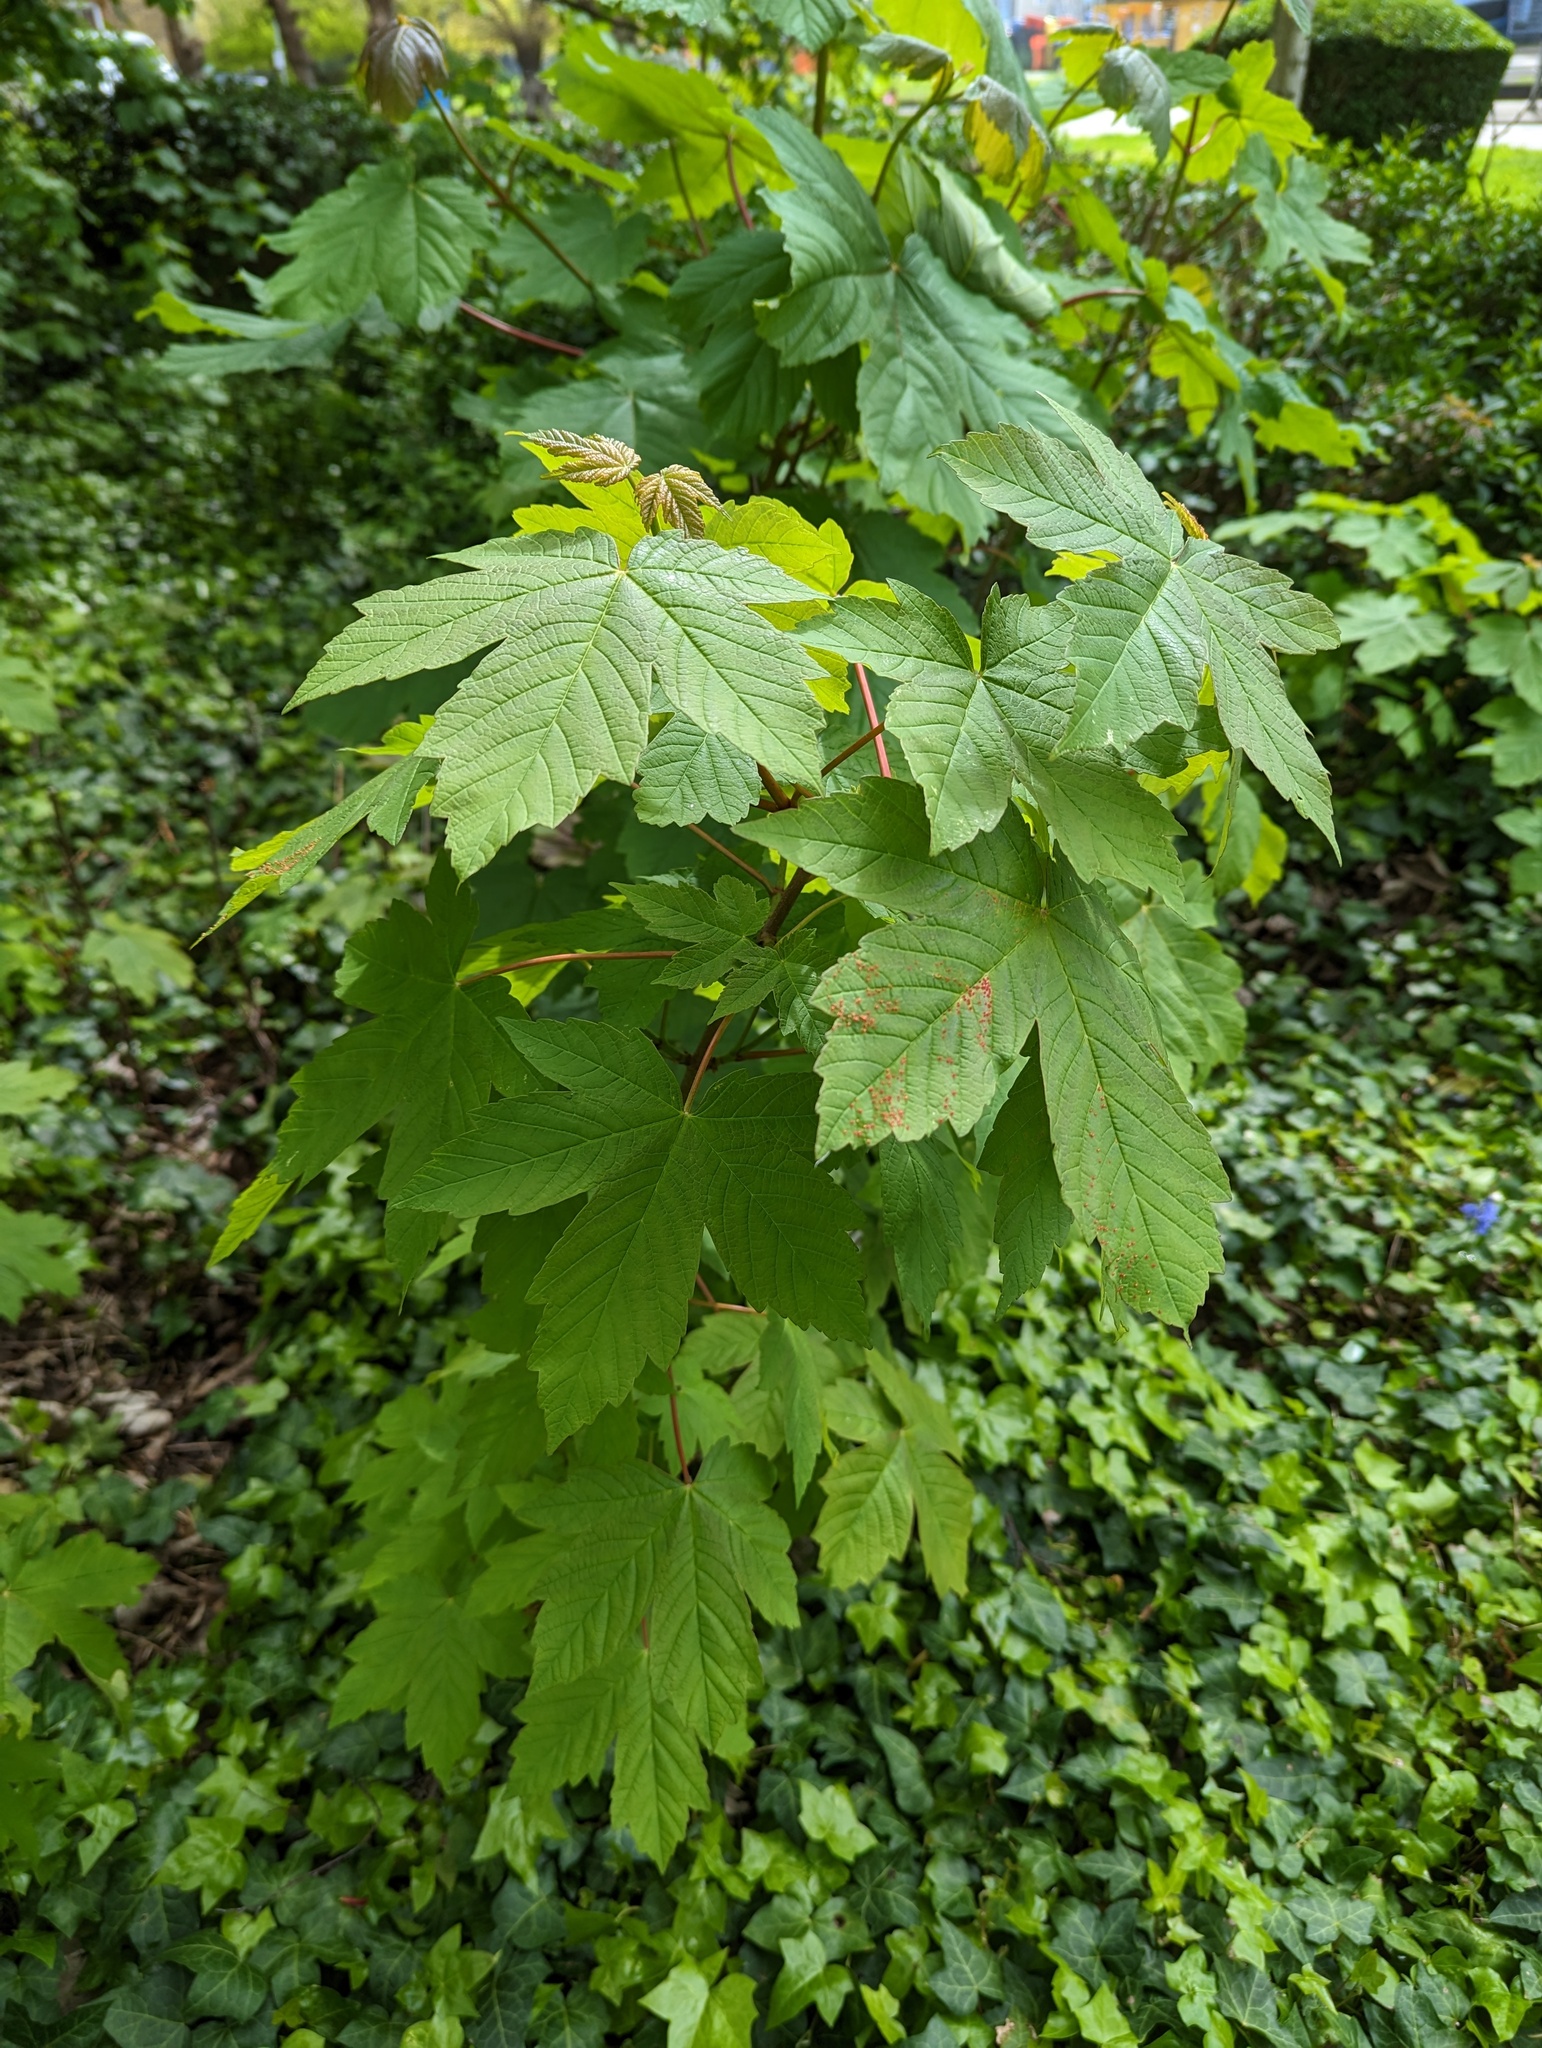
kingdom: Plantae
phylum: Tracheophyta
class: Magnoliopsida
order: Sapindales
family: Sapindaceae
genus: Acer
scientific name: Acer pseudoplatanus
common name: Sycamore
